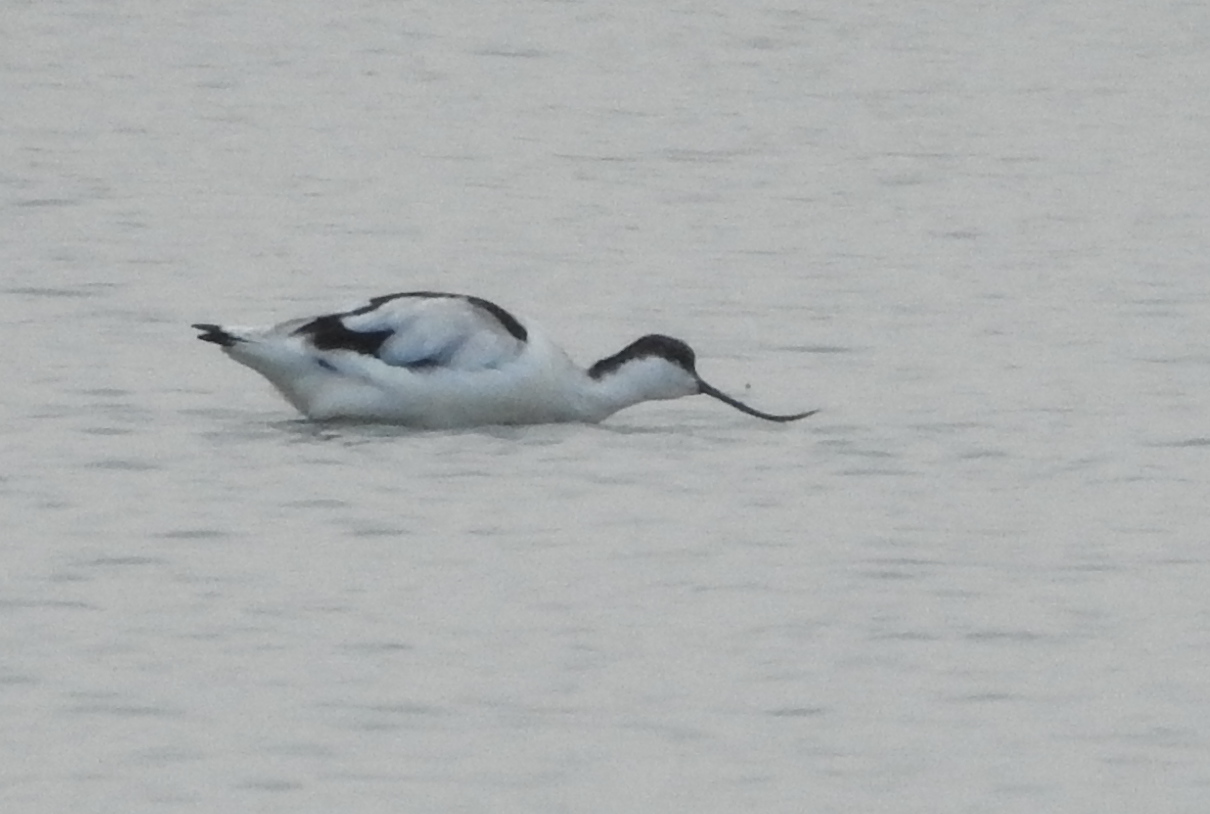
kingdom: Animalia
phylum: Chordata
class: Aves
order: Charadriiformes
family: Recurvirostridae
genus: Recurvirostra
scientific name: Recurvirostra avosetta
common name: Pied avocet
